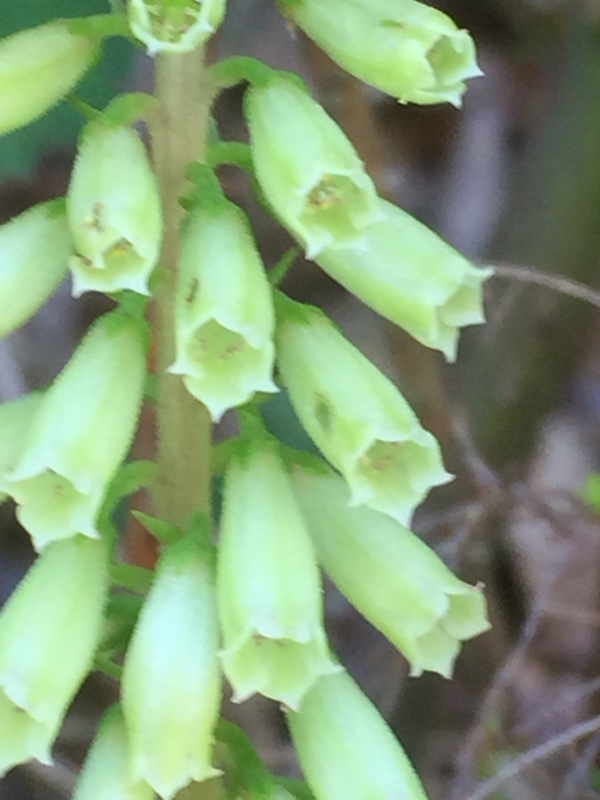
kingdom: Plantae
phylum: Tracheophyta
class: Magnoliopsida
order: Saxifragales
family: Crassulaceae
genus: Umbilicus
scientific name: Umbilicus rupestris
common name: Navelwort
